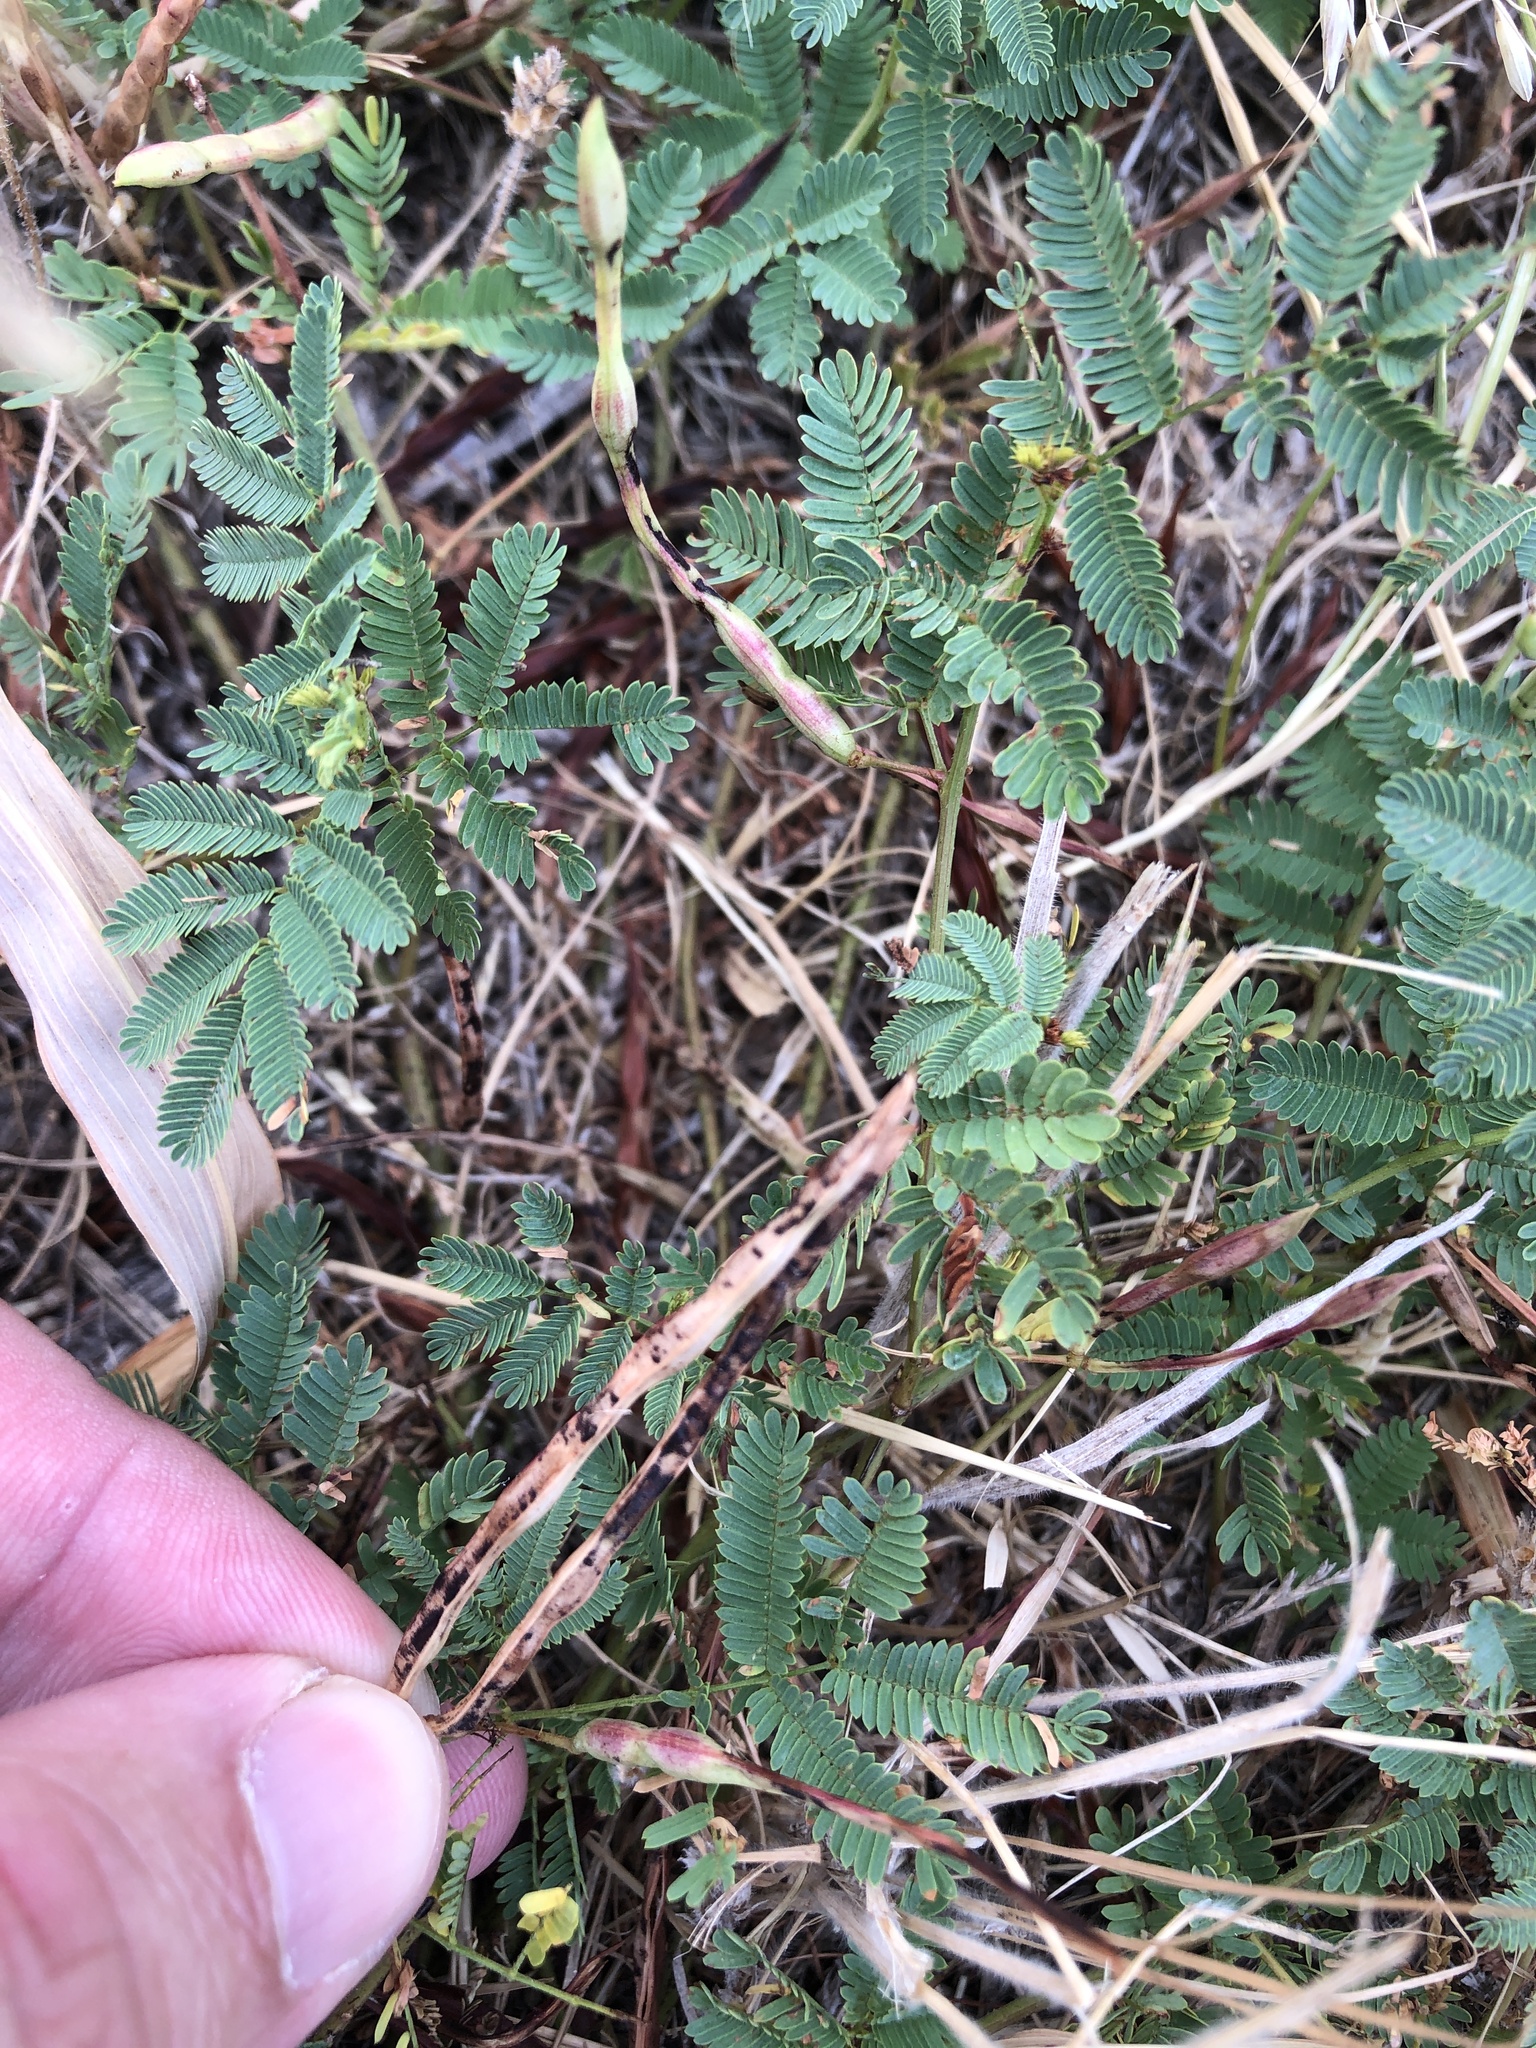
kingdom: Plantae
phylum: Tracheophyta
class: Magnoliopsida
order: Fabales
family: Fabaceae
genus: Desmanthus
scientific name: Desmanthus leptolobus
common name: Prairie-mimosa
